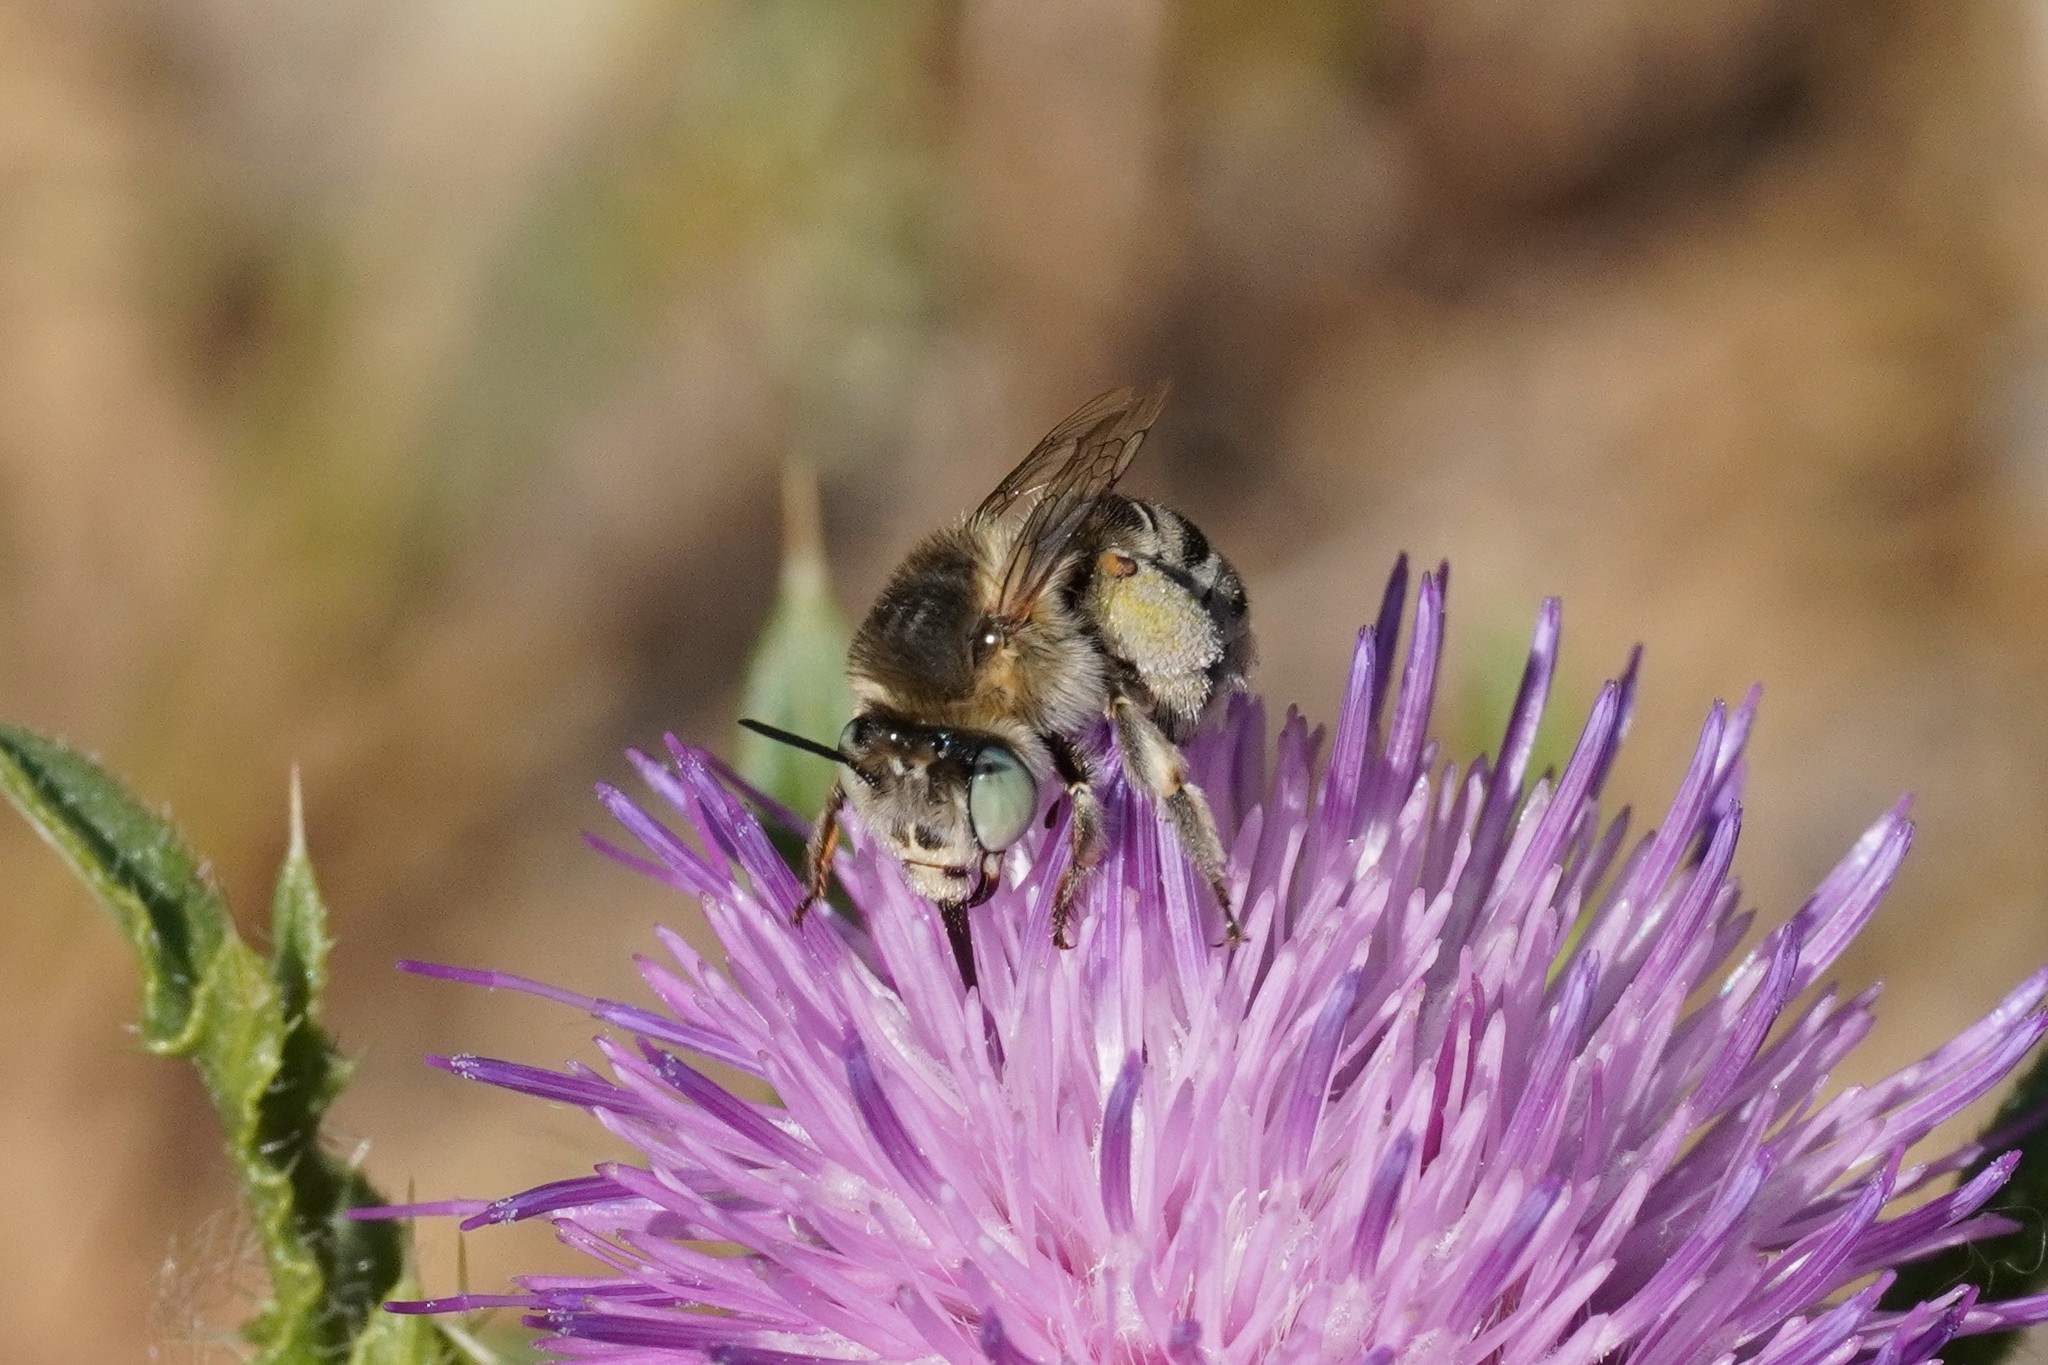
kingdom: Animalia
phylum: Arthropoda
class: Insecta
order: Hymenoptera
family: Apidae
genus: Anthophora
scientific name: Anthophora bimaculata
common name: Green-eyed flower bee
